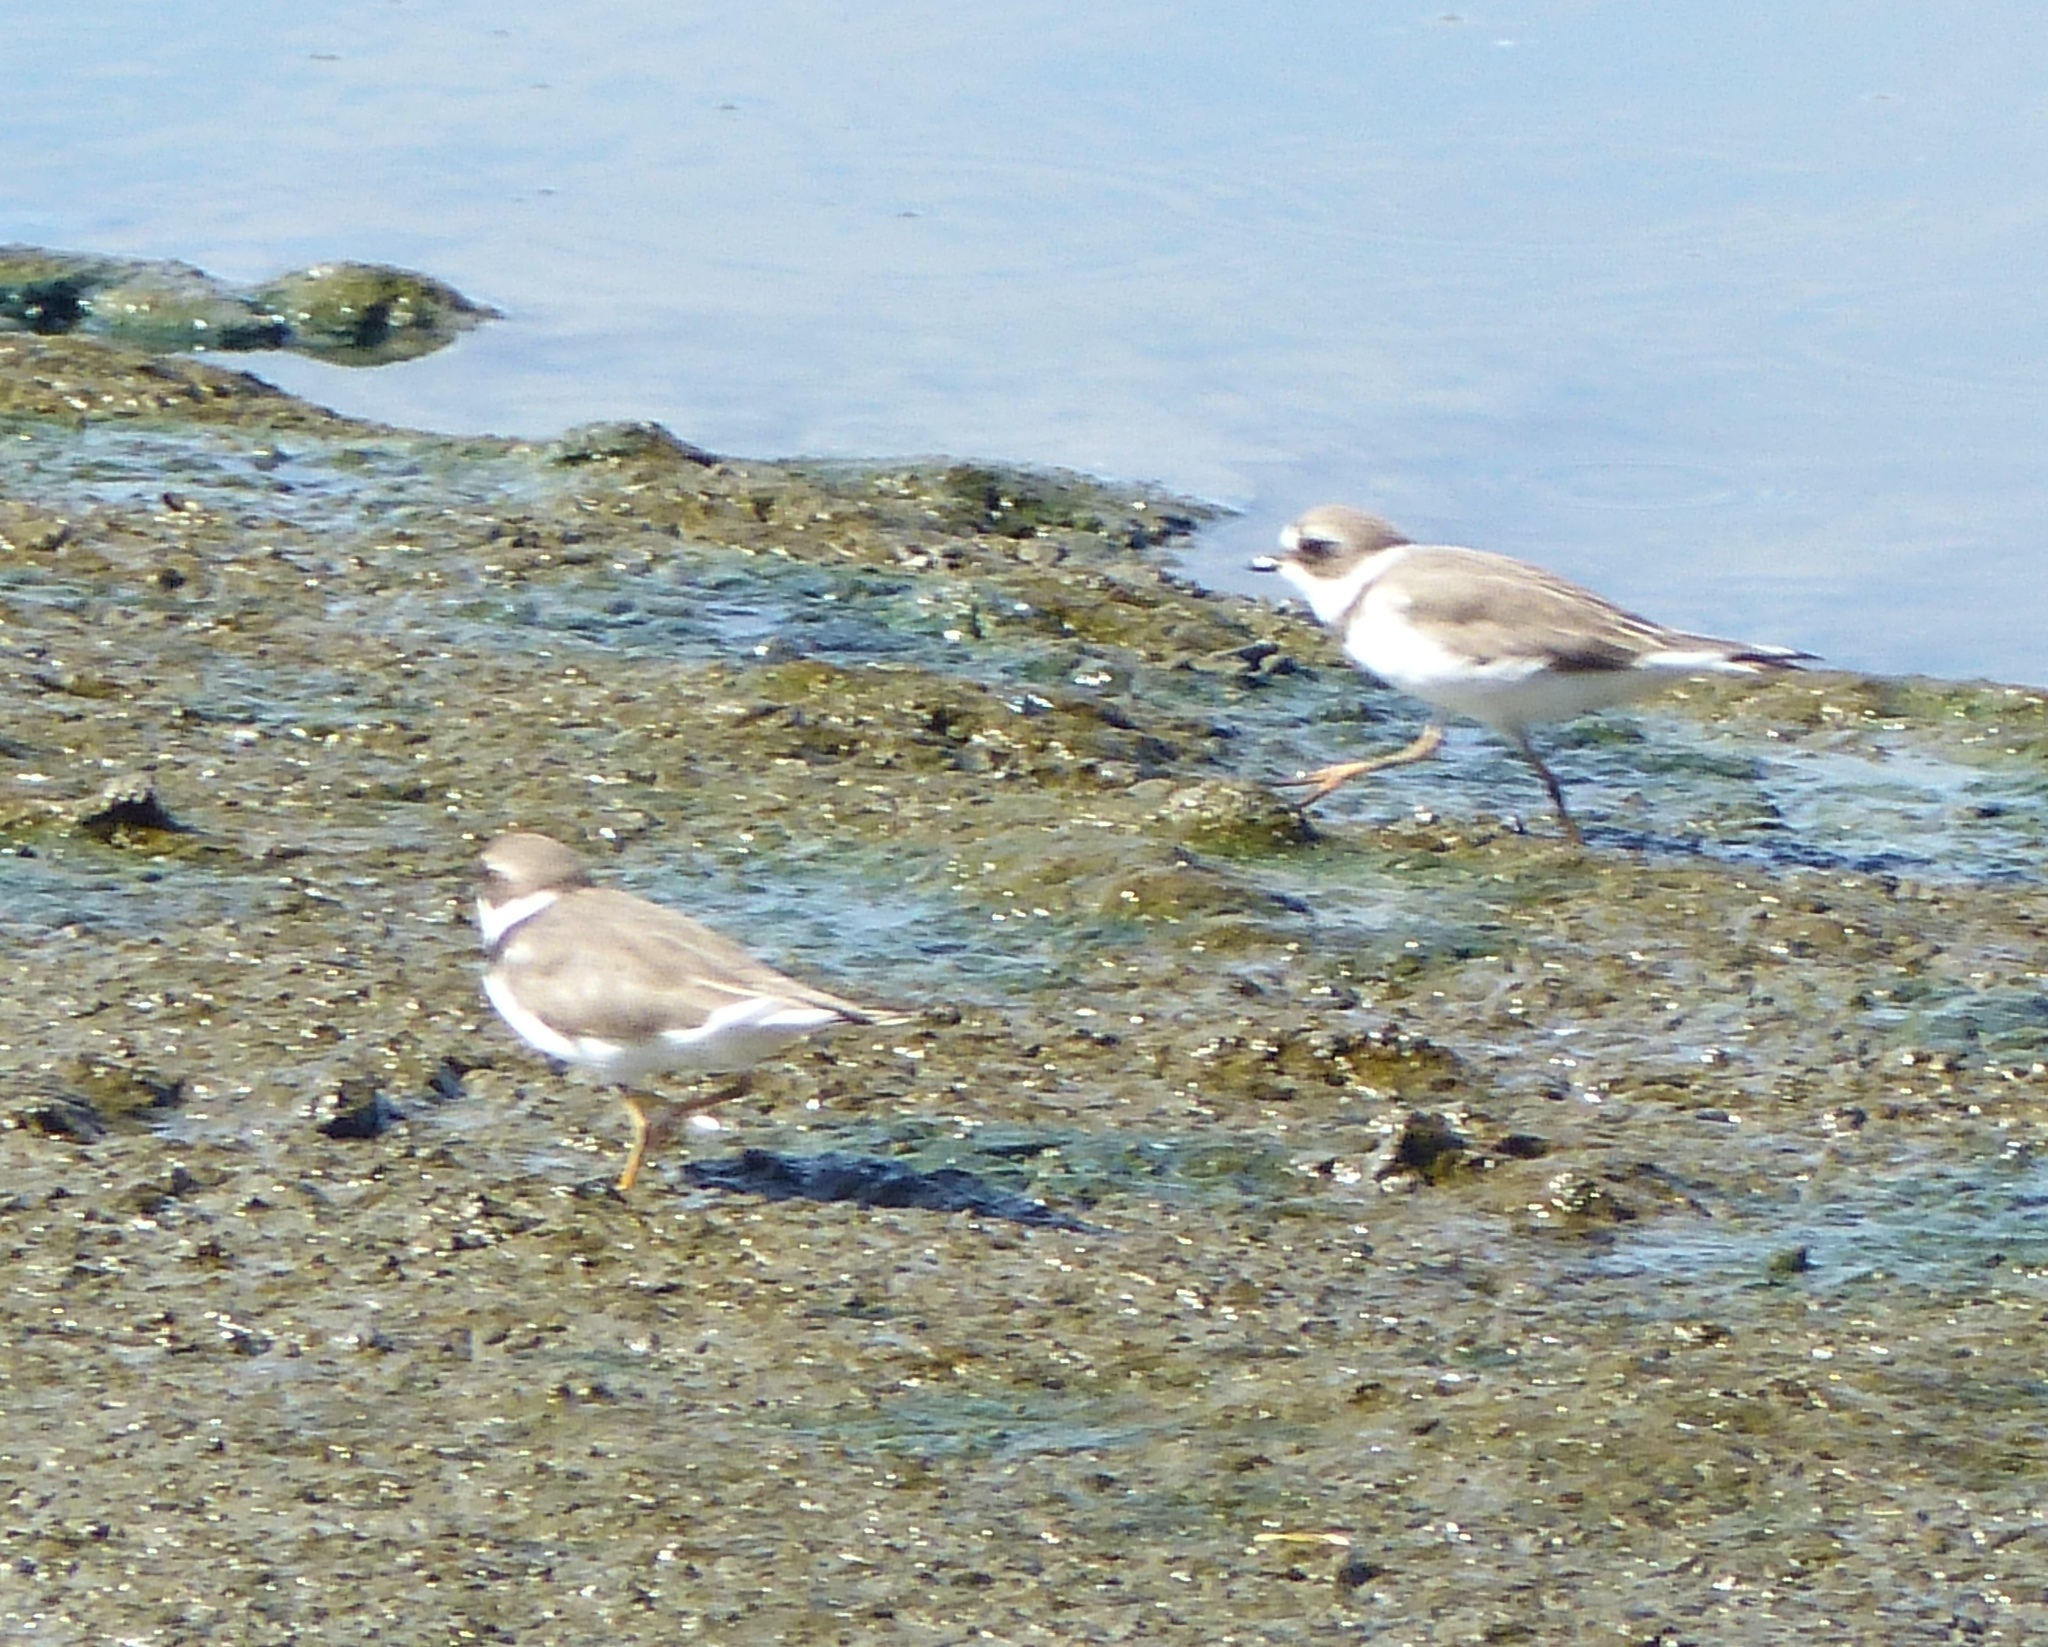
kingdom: Animalia
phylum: Chordata
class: Aves
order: Charadriiformes
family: Charadriidae
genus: Charadrius
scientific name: Charadrius semipalmatus
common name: Semipalmated plover
